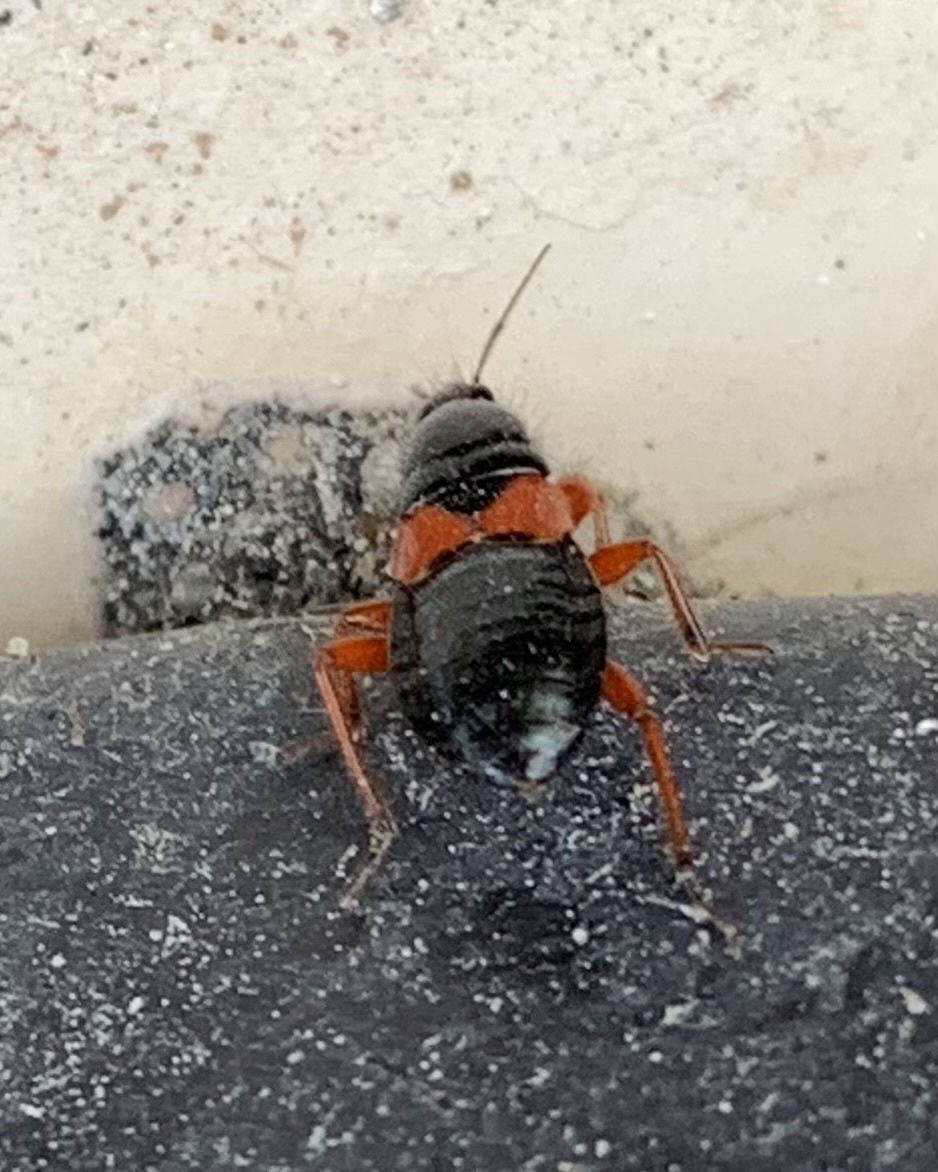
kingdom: Animalia
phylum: Arthropoda
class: Insecta
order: Hemiptera
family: Nabidae
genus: Prostemma
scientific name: Prostemma guttula
